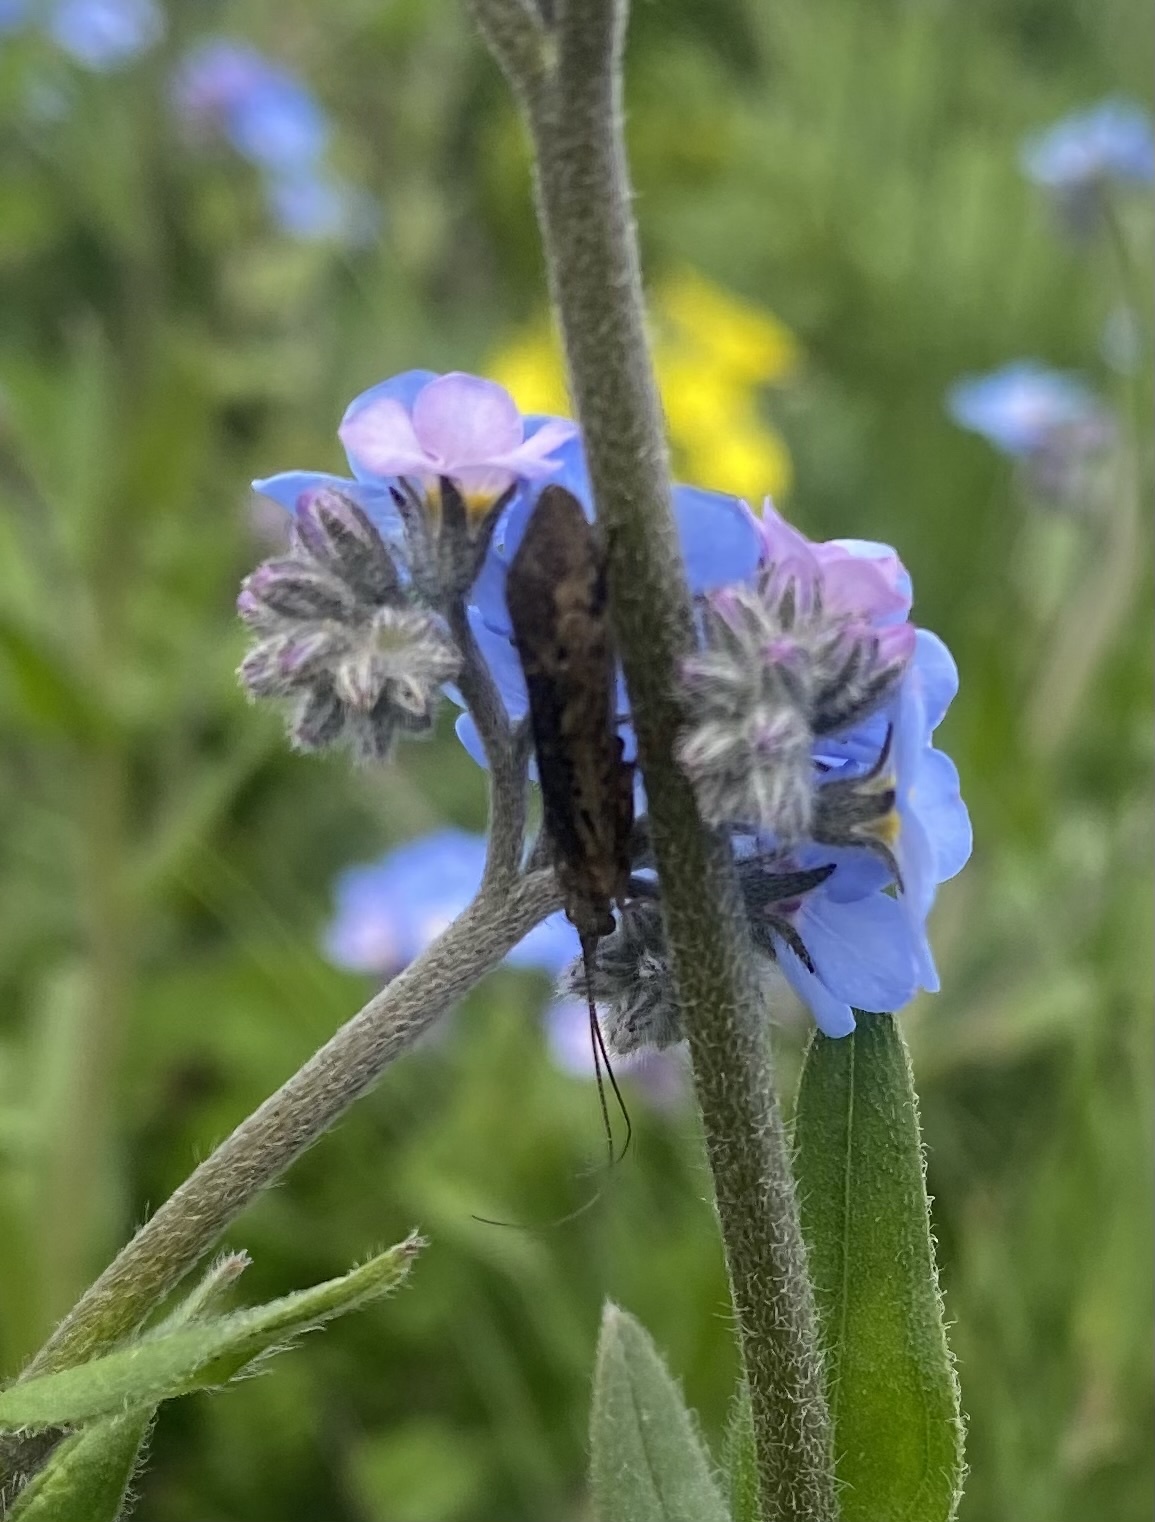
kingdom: Animalia
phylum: Arthropoda
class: Insecta
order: Trichoptera
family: Limnephilidae
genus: Limnephilus
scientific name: Limnephilus
